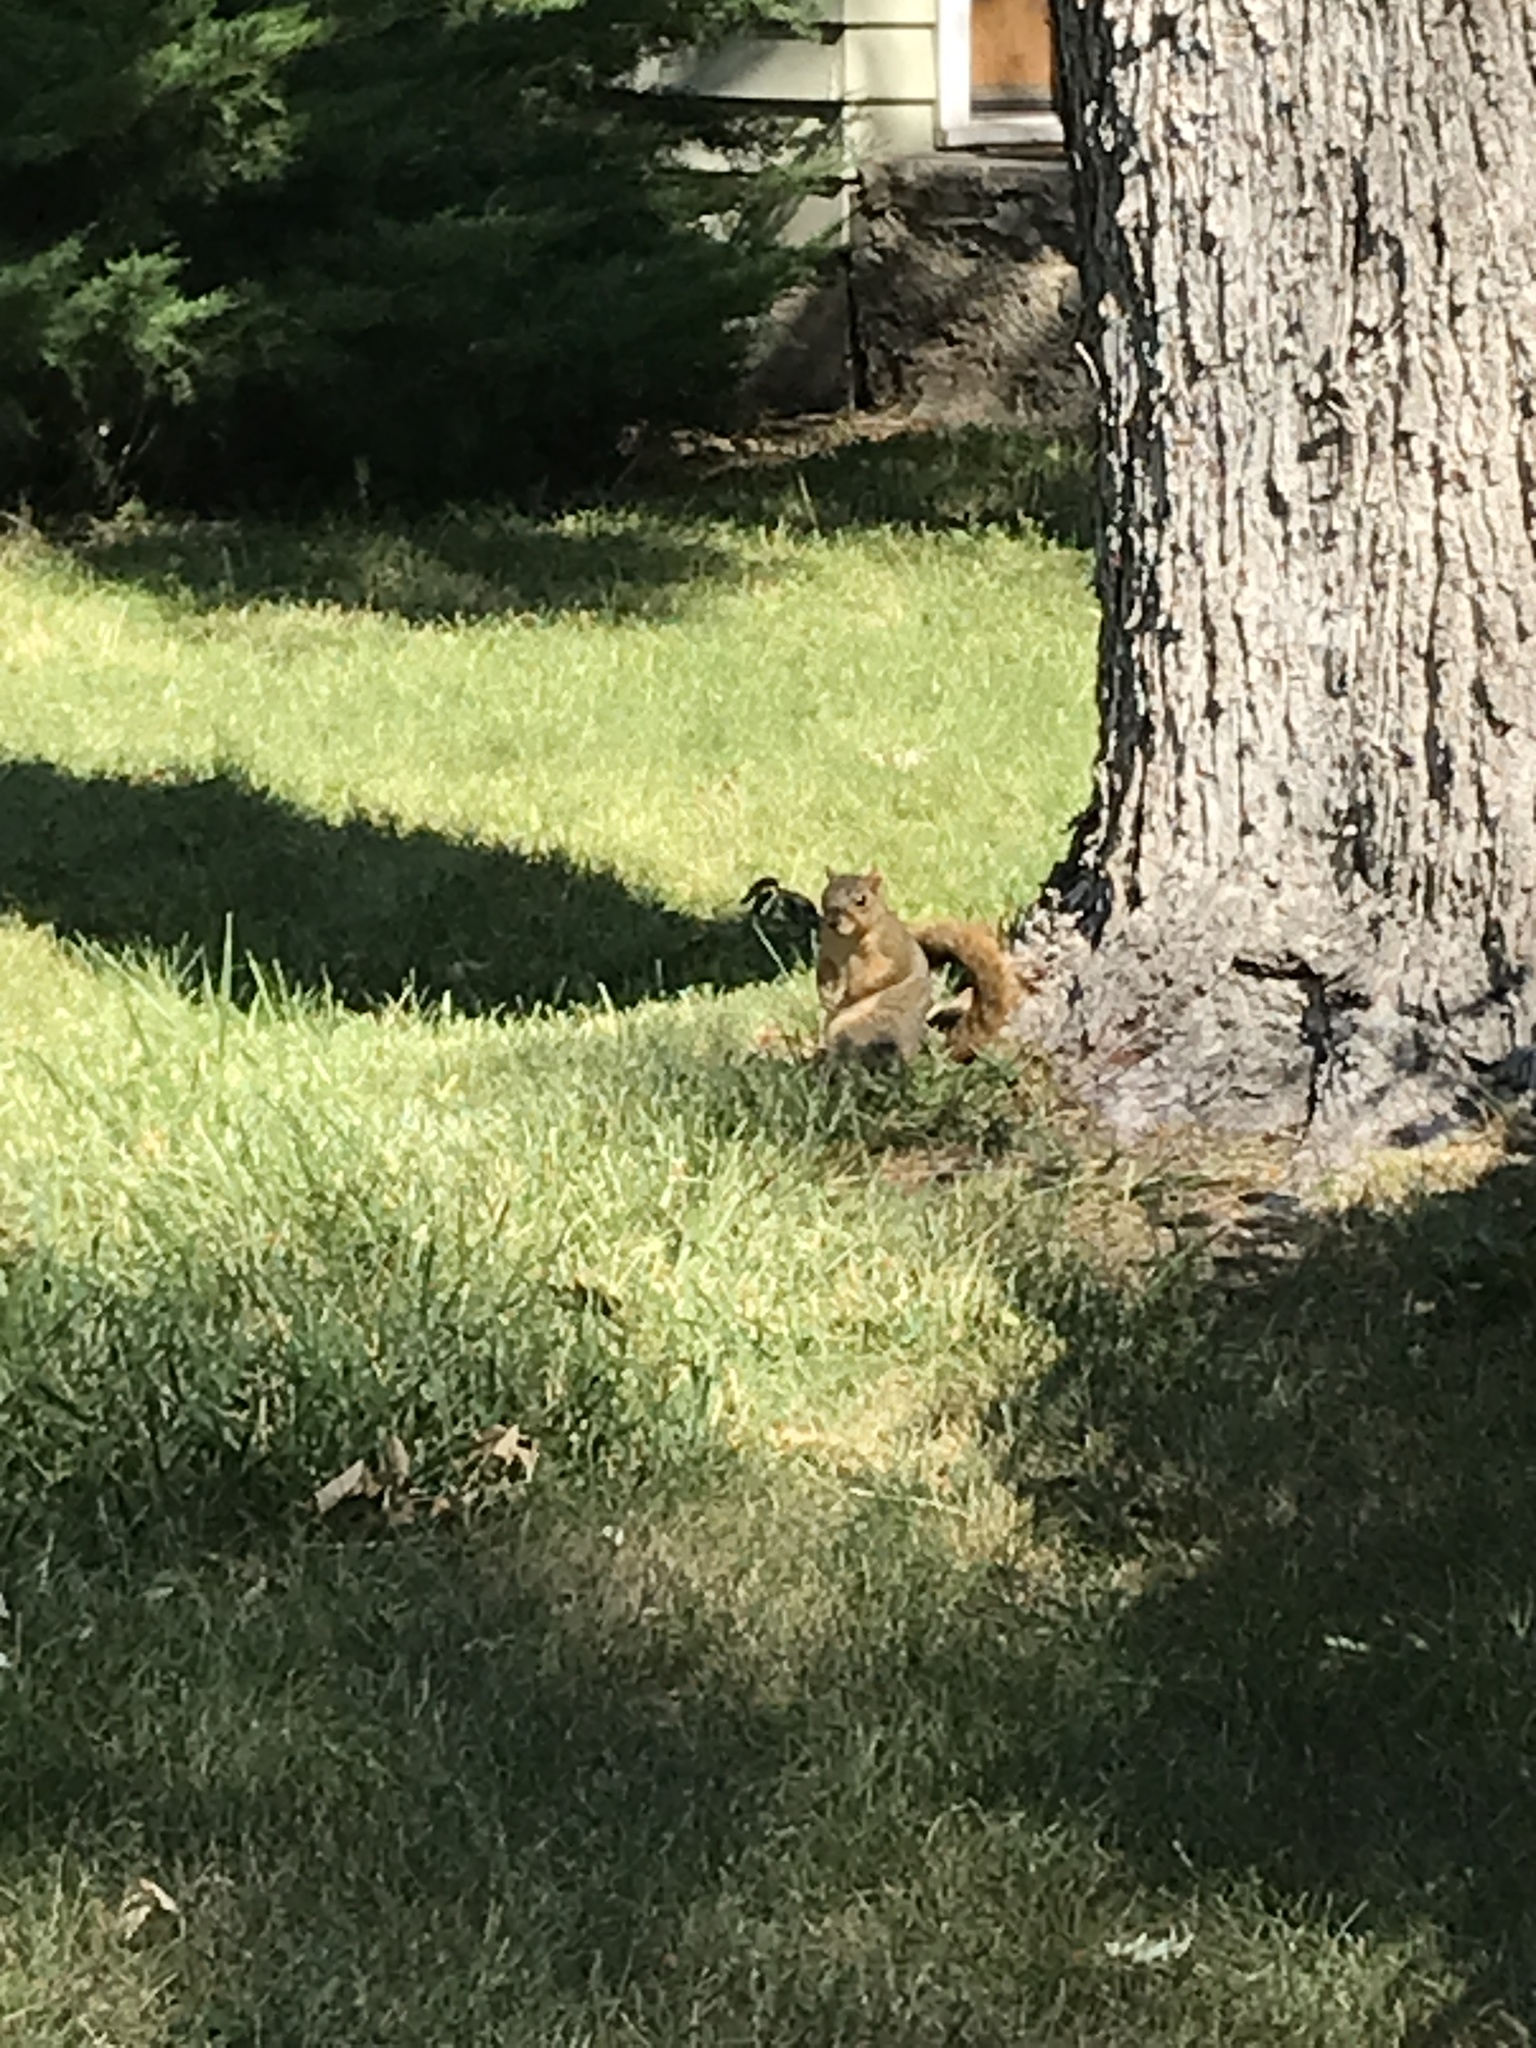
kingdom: Animalia
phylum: Chordata
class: Mammalia
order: Rodentia
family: Sciuridae
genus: Sciurus
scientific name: Sciurus niger
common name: Fox squirrel
